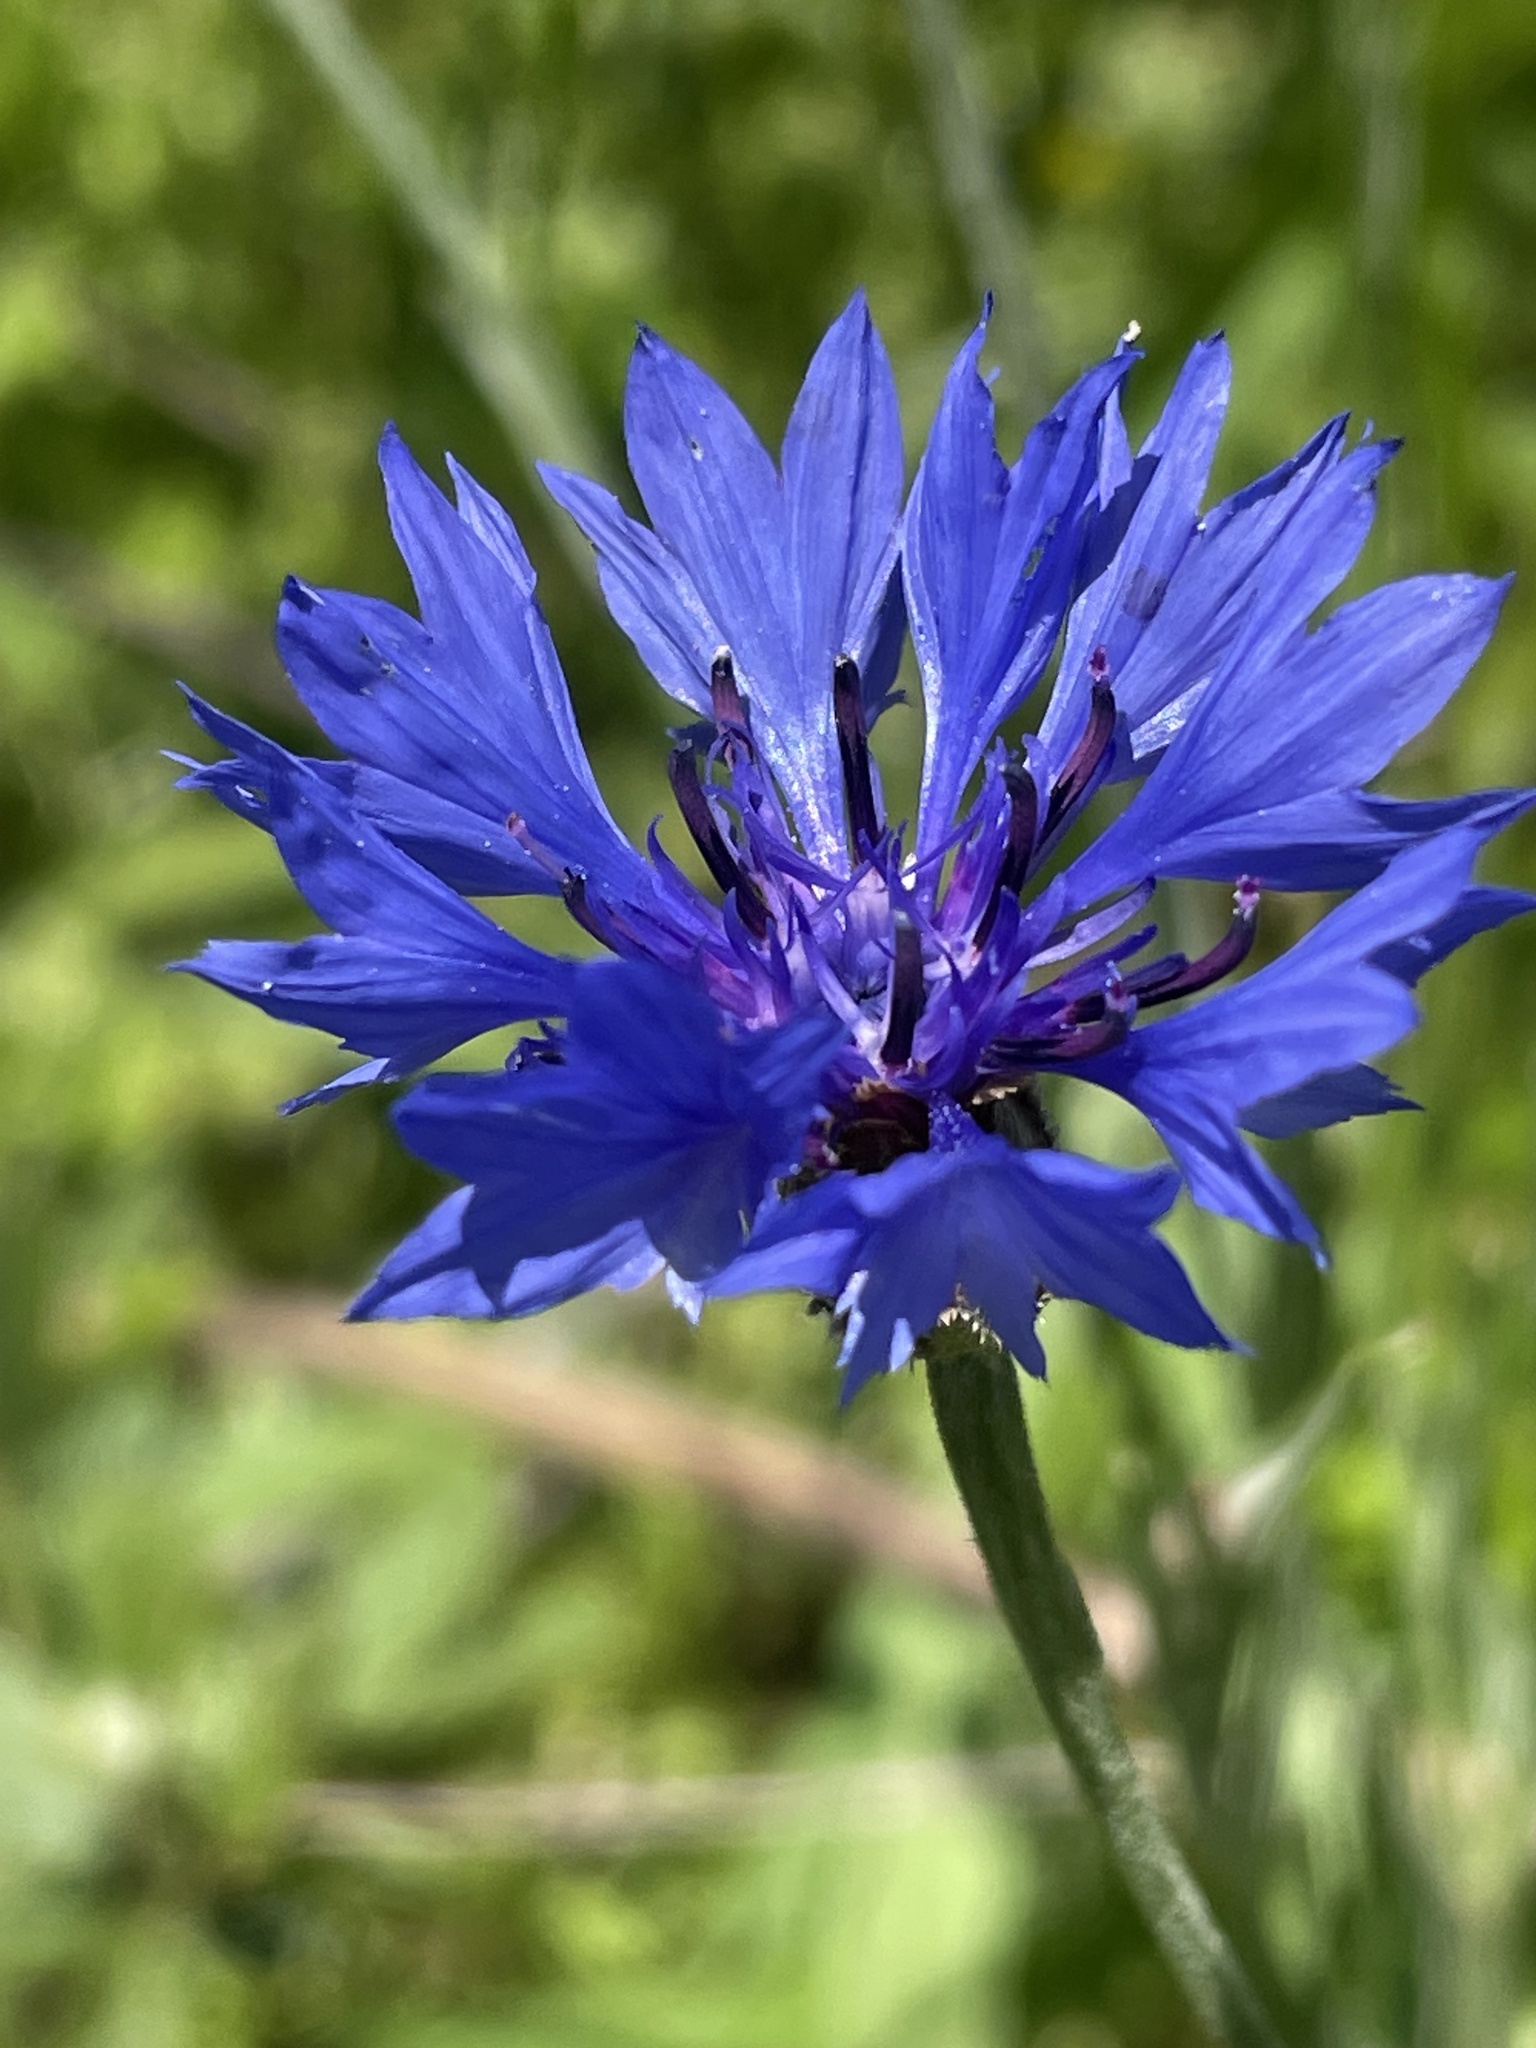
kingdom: Plantae
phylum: Tracheophyta
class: Magnoliopsida
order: Asterales
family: Asteraceae
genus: Centaurea
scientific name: Centaurea cyanus
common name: Cornflower
